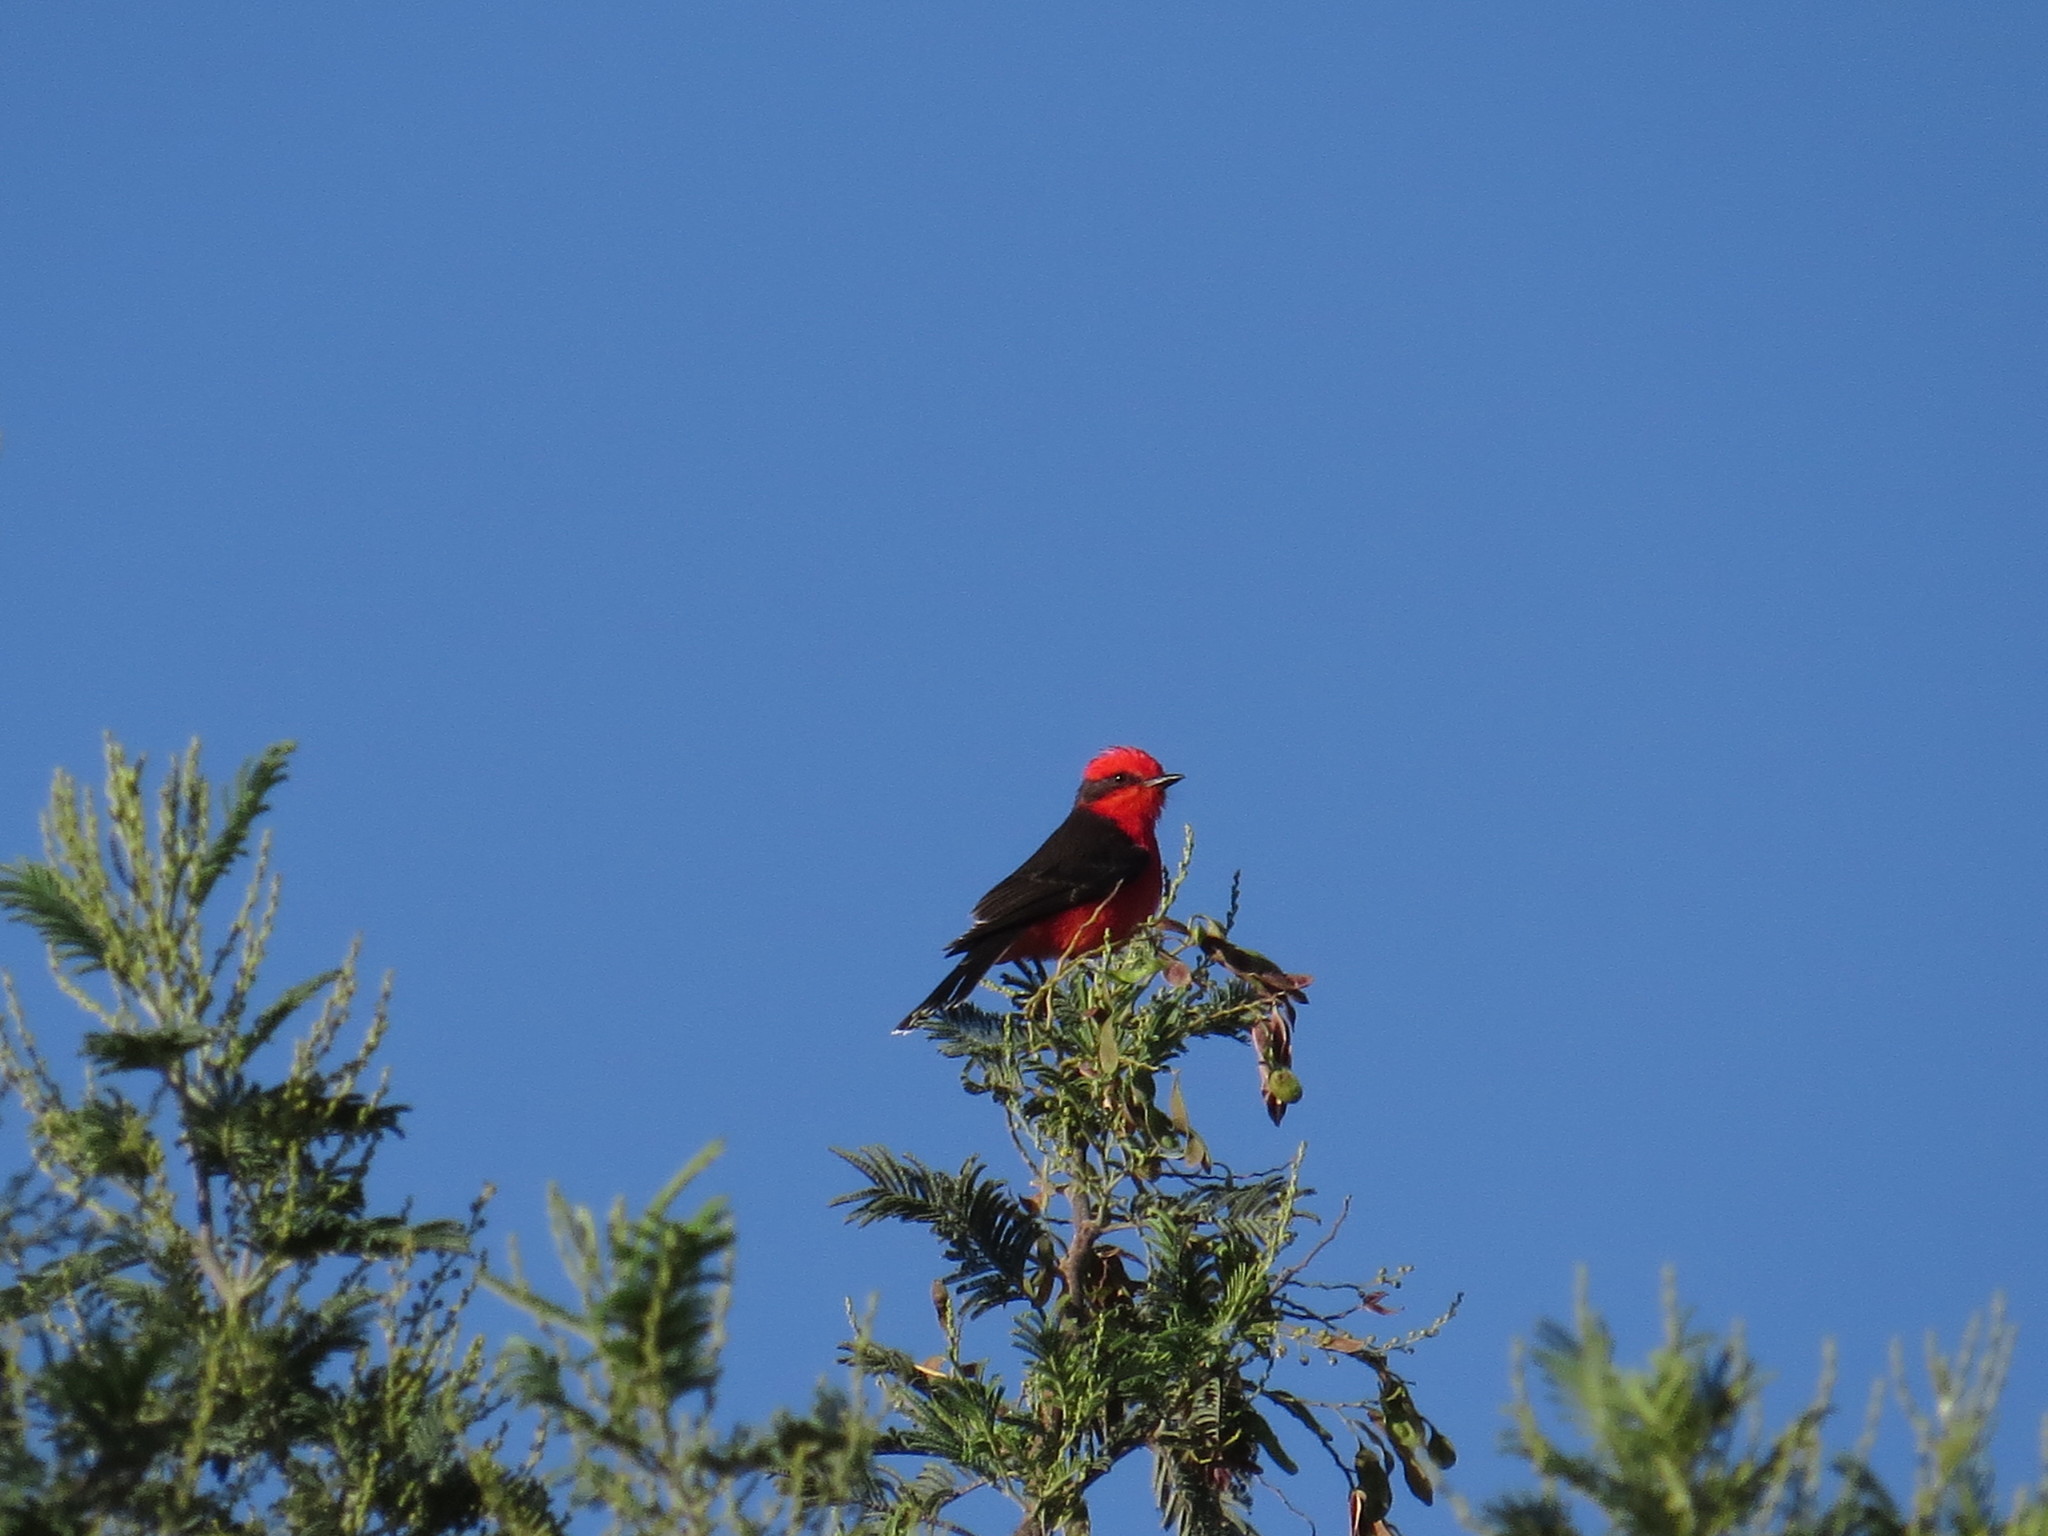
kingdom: Animalia
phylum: Chordata
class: Aves
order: Passeriformes
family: Tyrannidae
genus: Pyrocephalus
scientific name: Pyrocephalus rubinus
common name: Vermilion flycatcher
